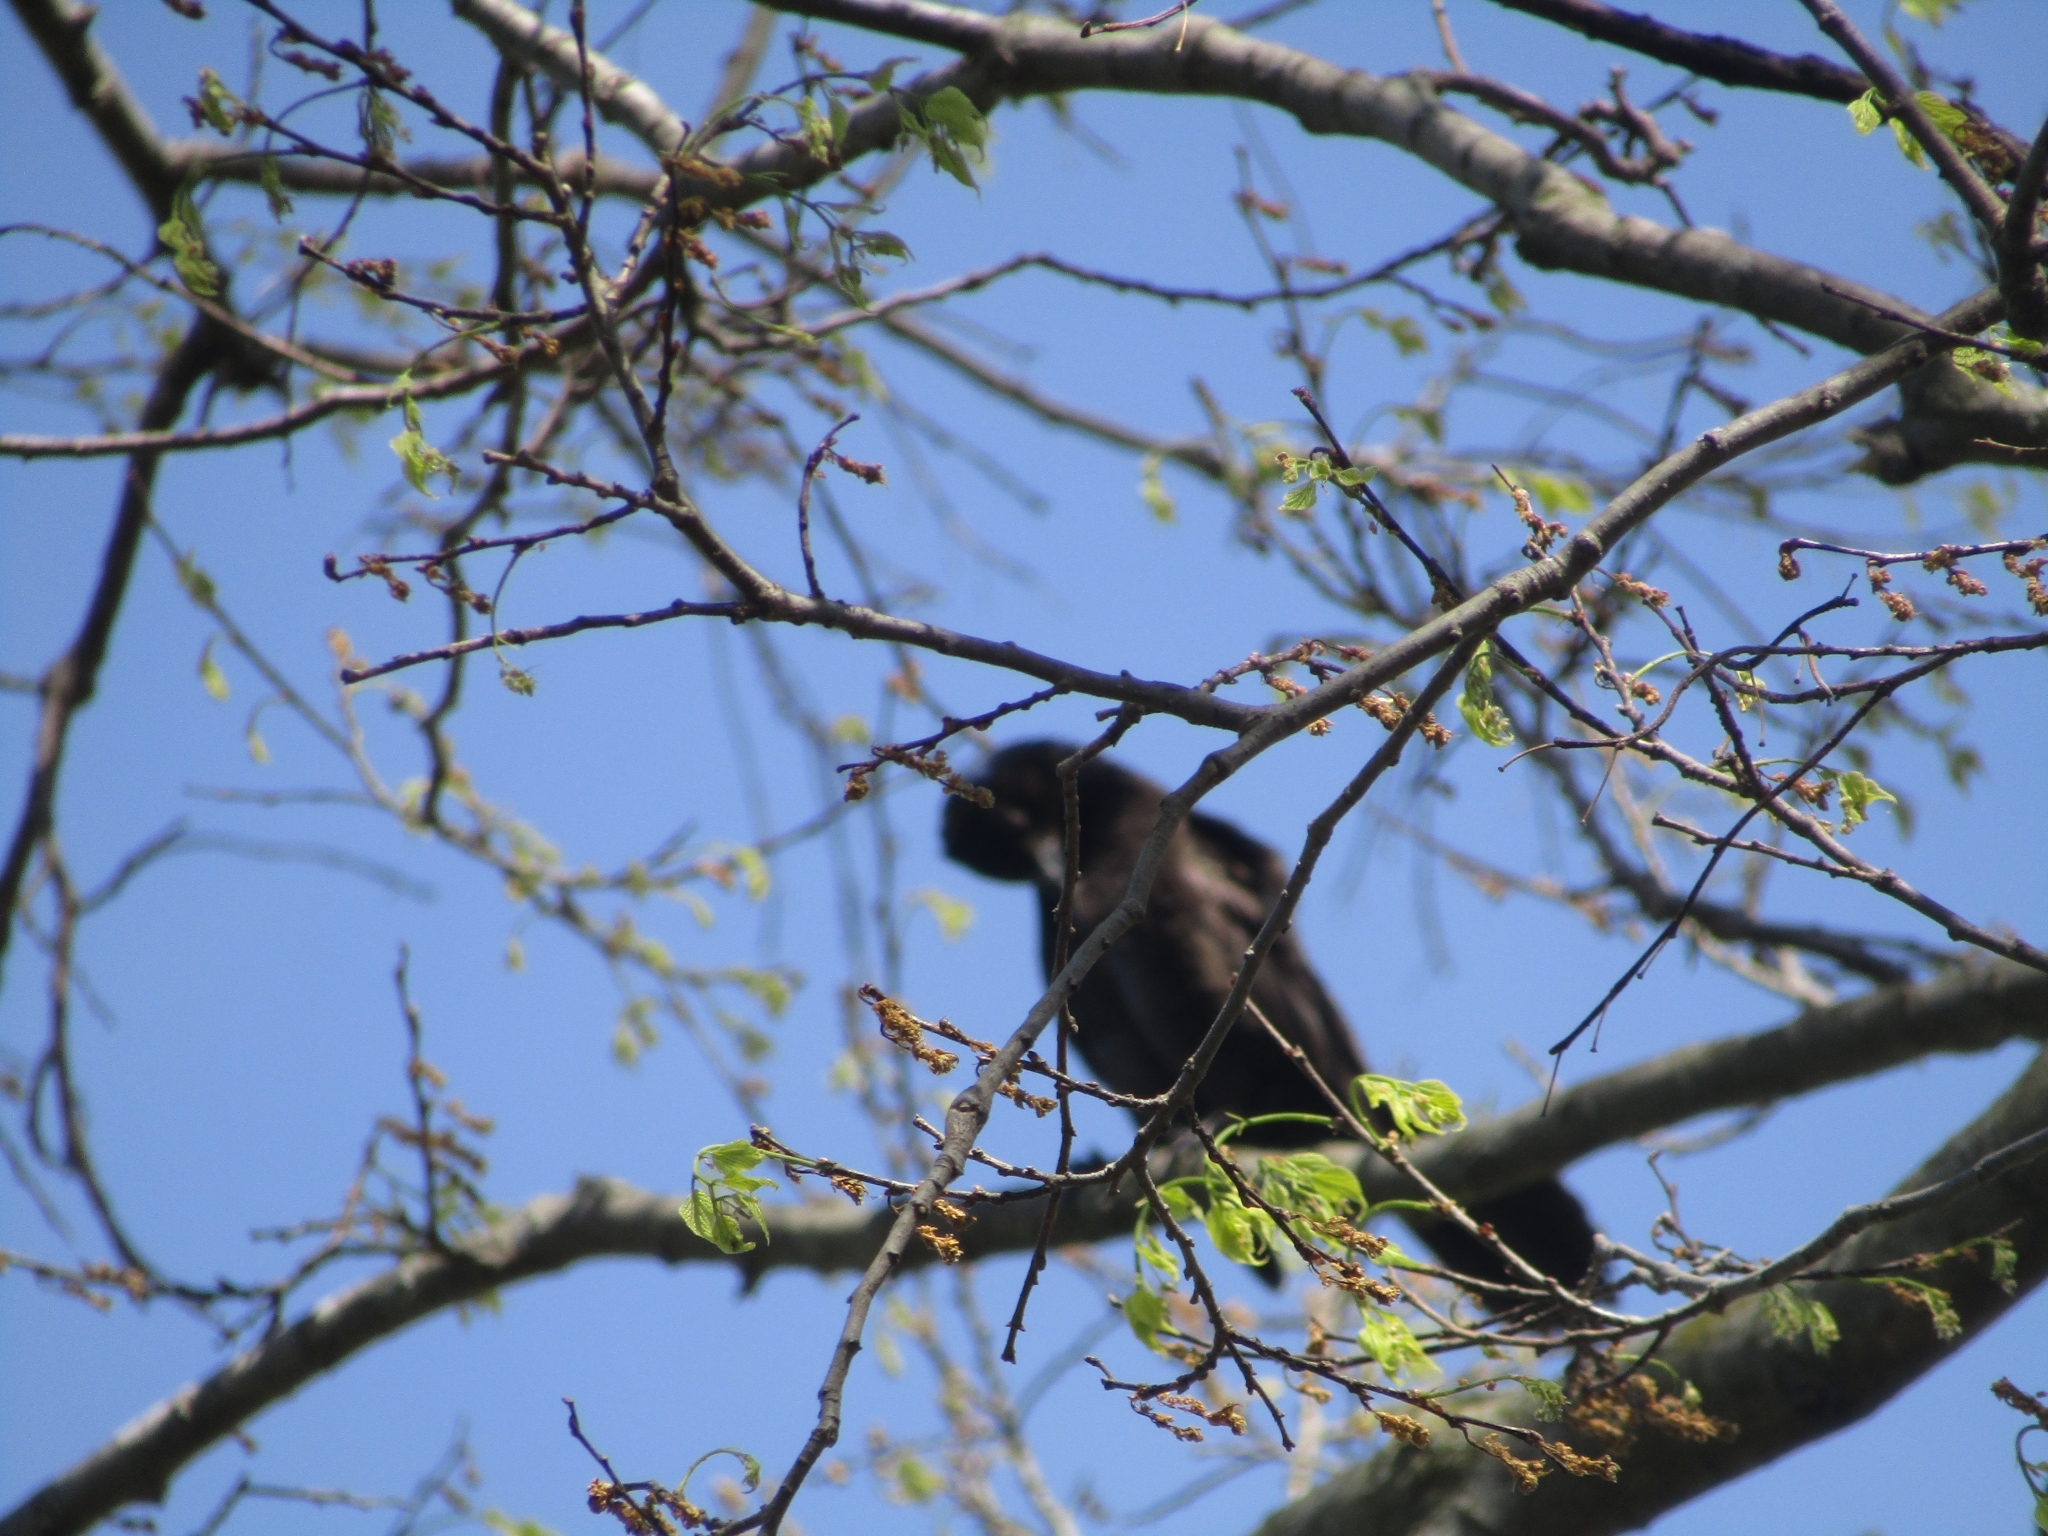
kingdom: Animalia
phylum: Chordata
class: Aves
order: Passeriformes
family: Icteridae
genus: Quiscalus
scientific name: Quiscalus quiscula
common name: Common grackle
